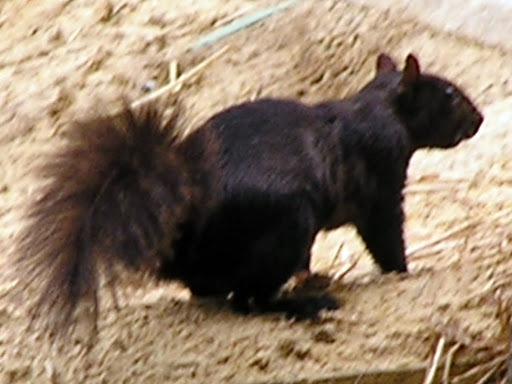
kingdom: Animalia
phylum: Chordata
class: Mammalia
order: Rodentia
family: Sciuridae
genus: Sciurus
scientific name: Sciurus carolinensis
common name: Eastern gray squirrel
